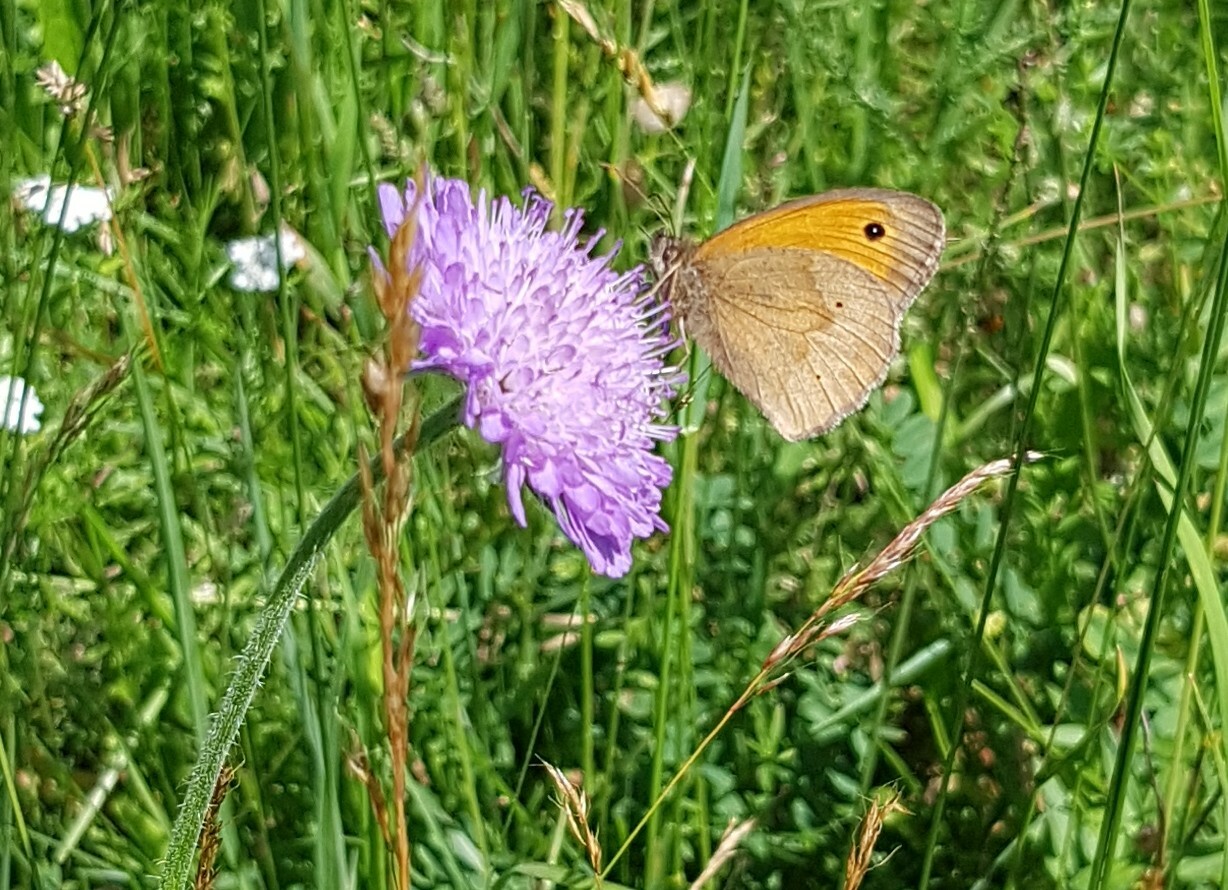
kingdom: Animalia
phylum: Arthropoda
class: Insecta
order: Lepidoptera
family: Nymphalidae
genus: Maniola
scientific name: Maniola jurtina
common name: Meadow brown
